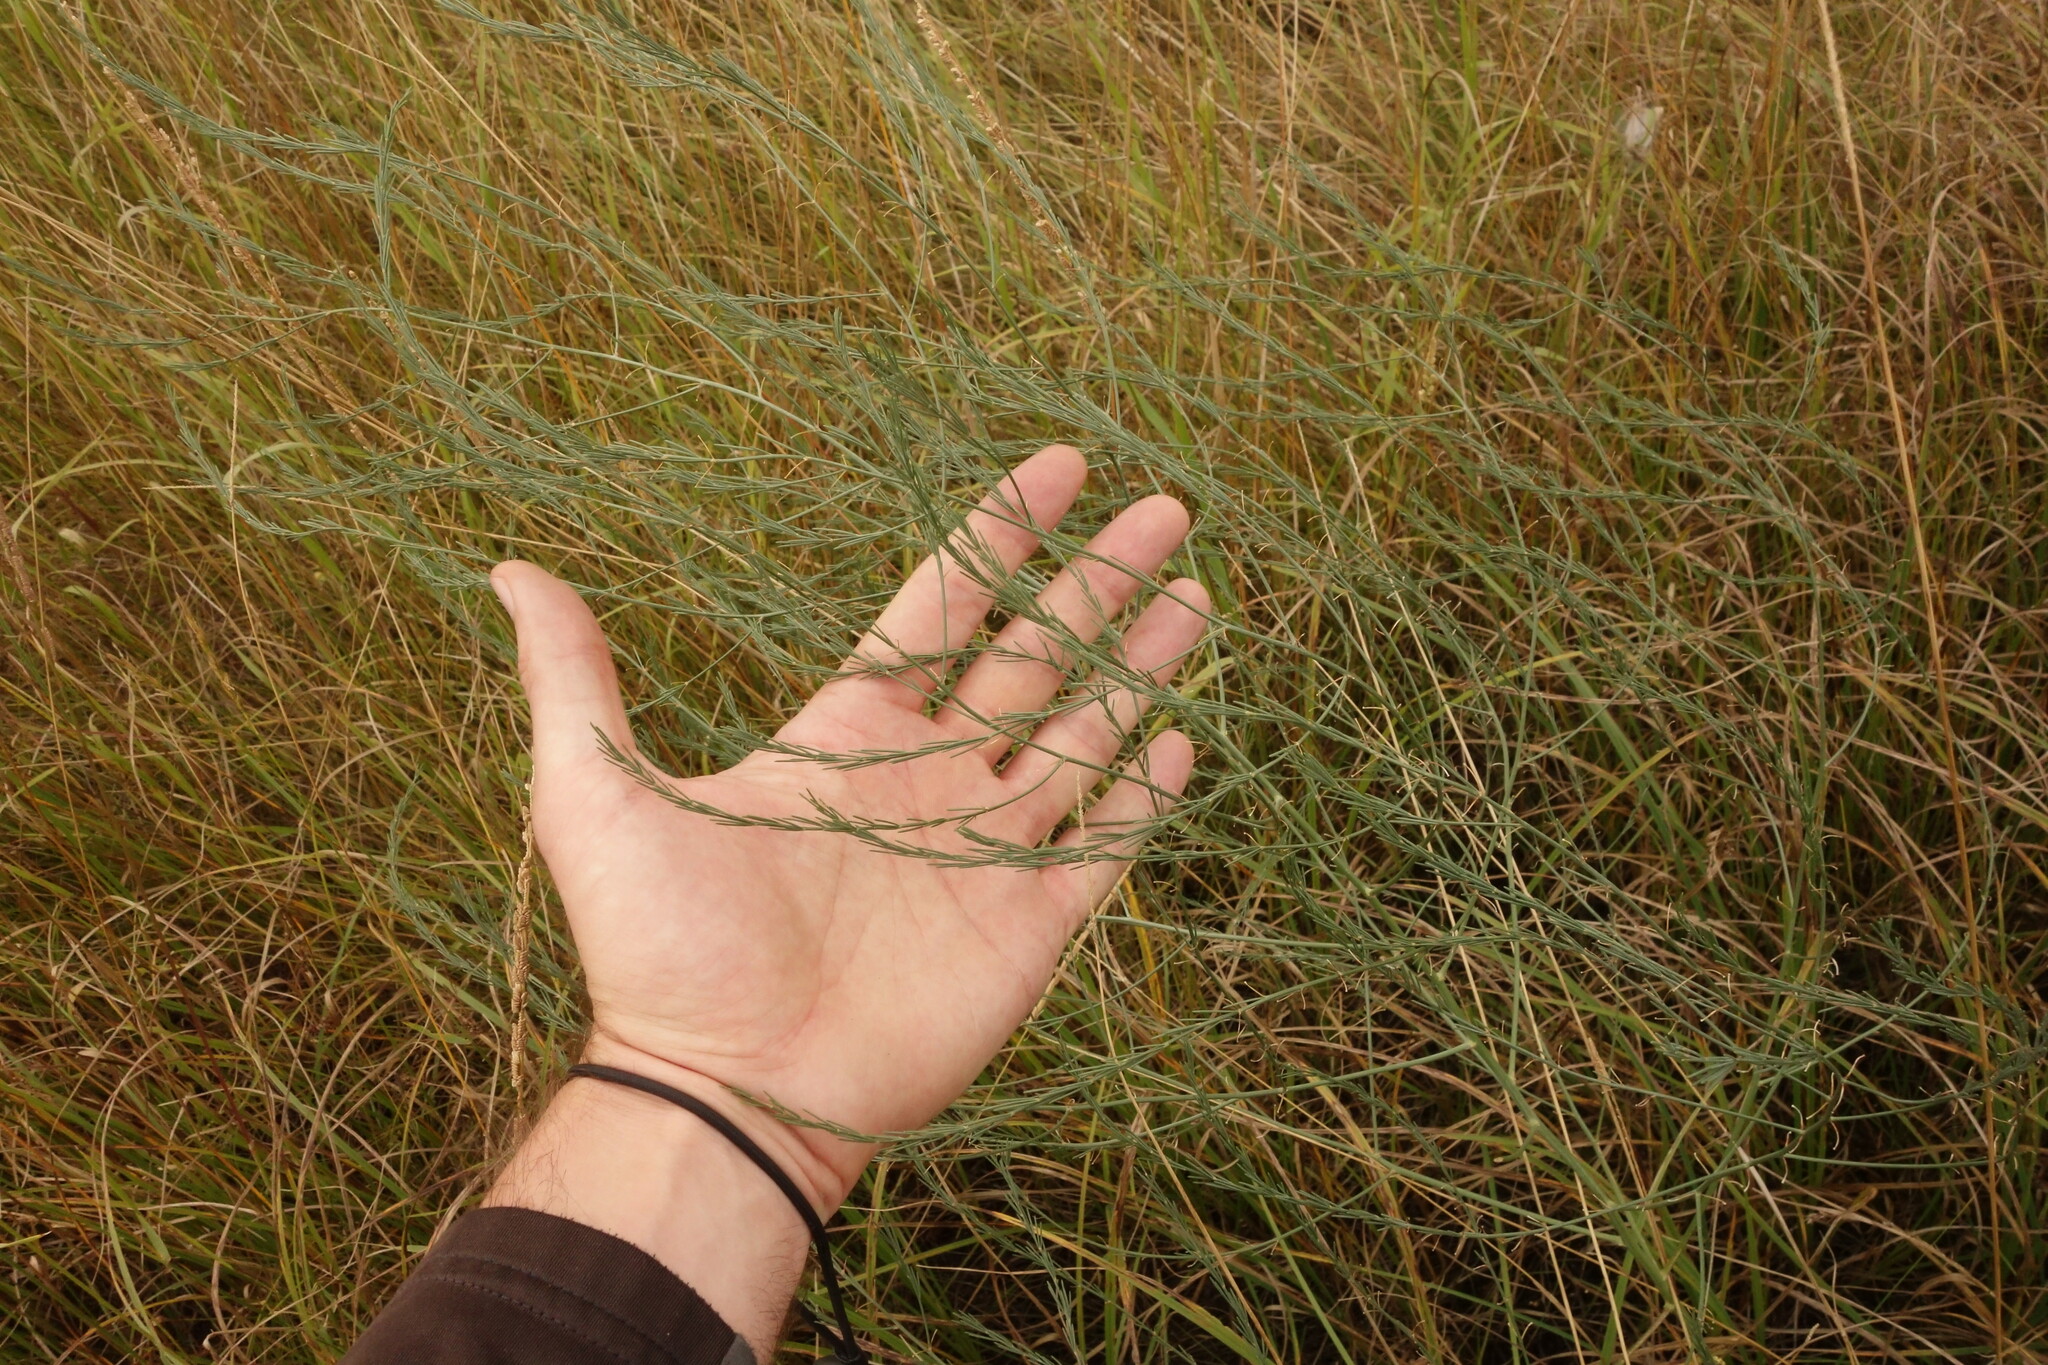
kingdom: Plantae
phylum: Tracheophyta
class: Liliopsida
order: Asparagales
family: Asparagaceae
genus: Asparagus
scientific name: Asparagus officinalis
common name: Garden asparagus
